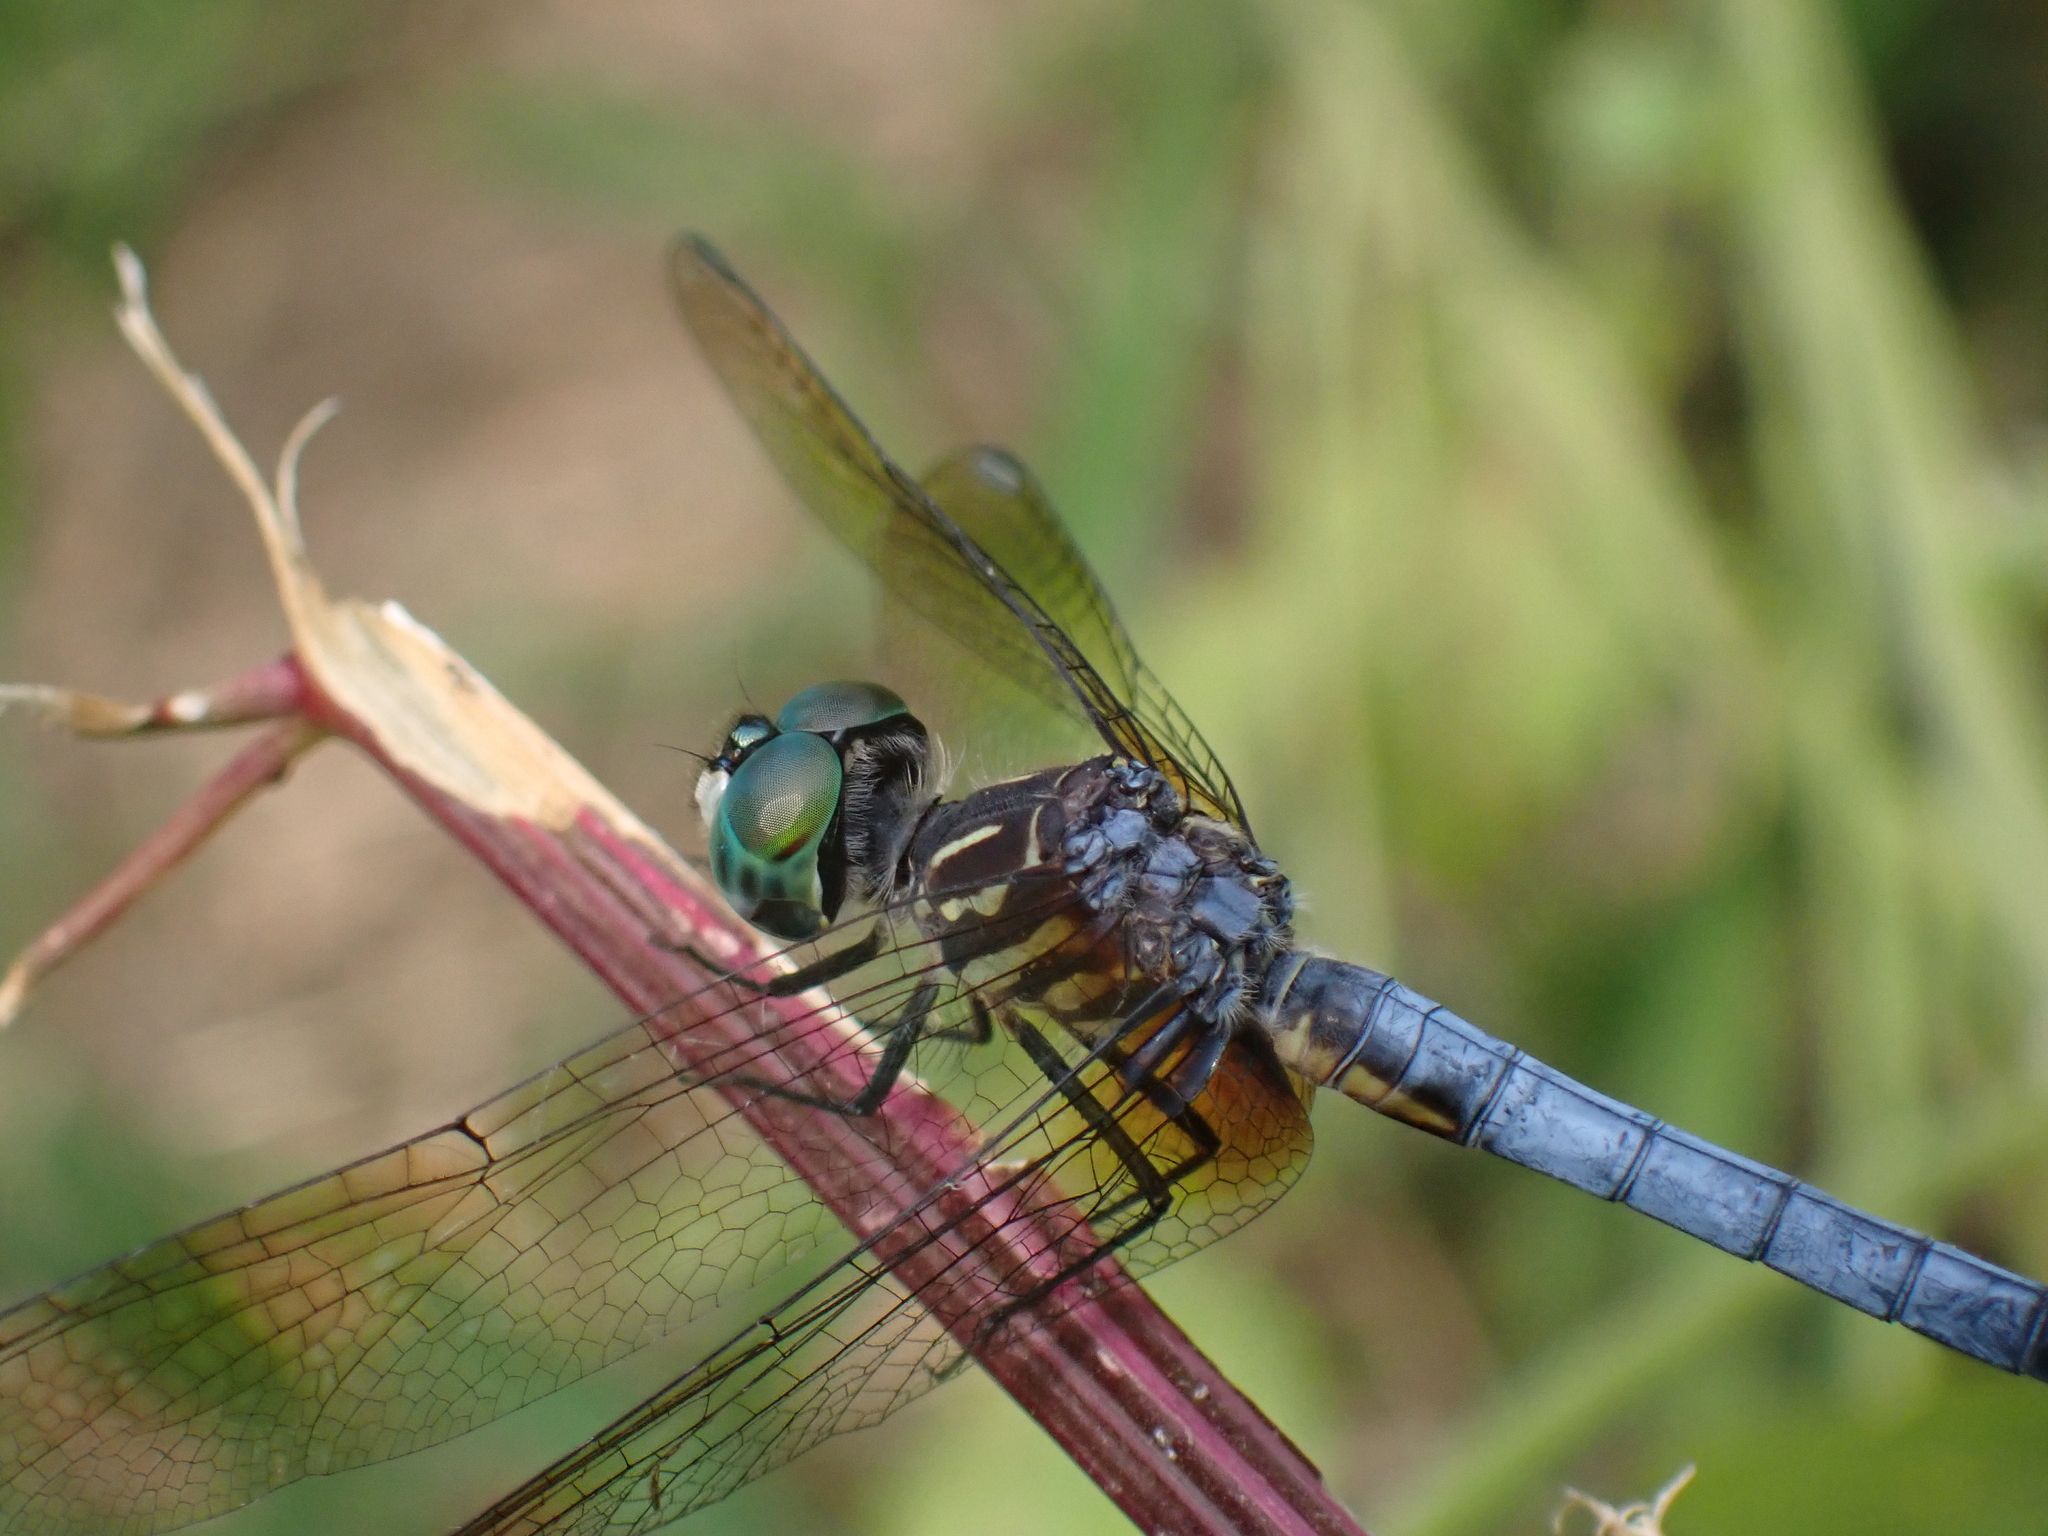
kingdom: Animalia
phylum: Arthropoda
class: Insecta
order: Odonata
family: Libellulidae
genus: Pachydiplax
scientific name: Pachydiplax longipennis
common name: Blue dasher
